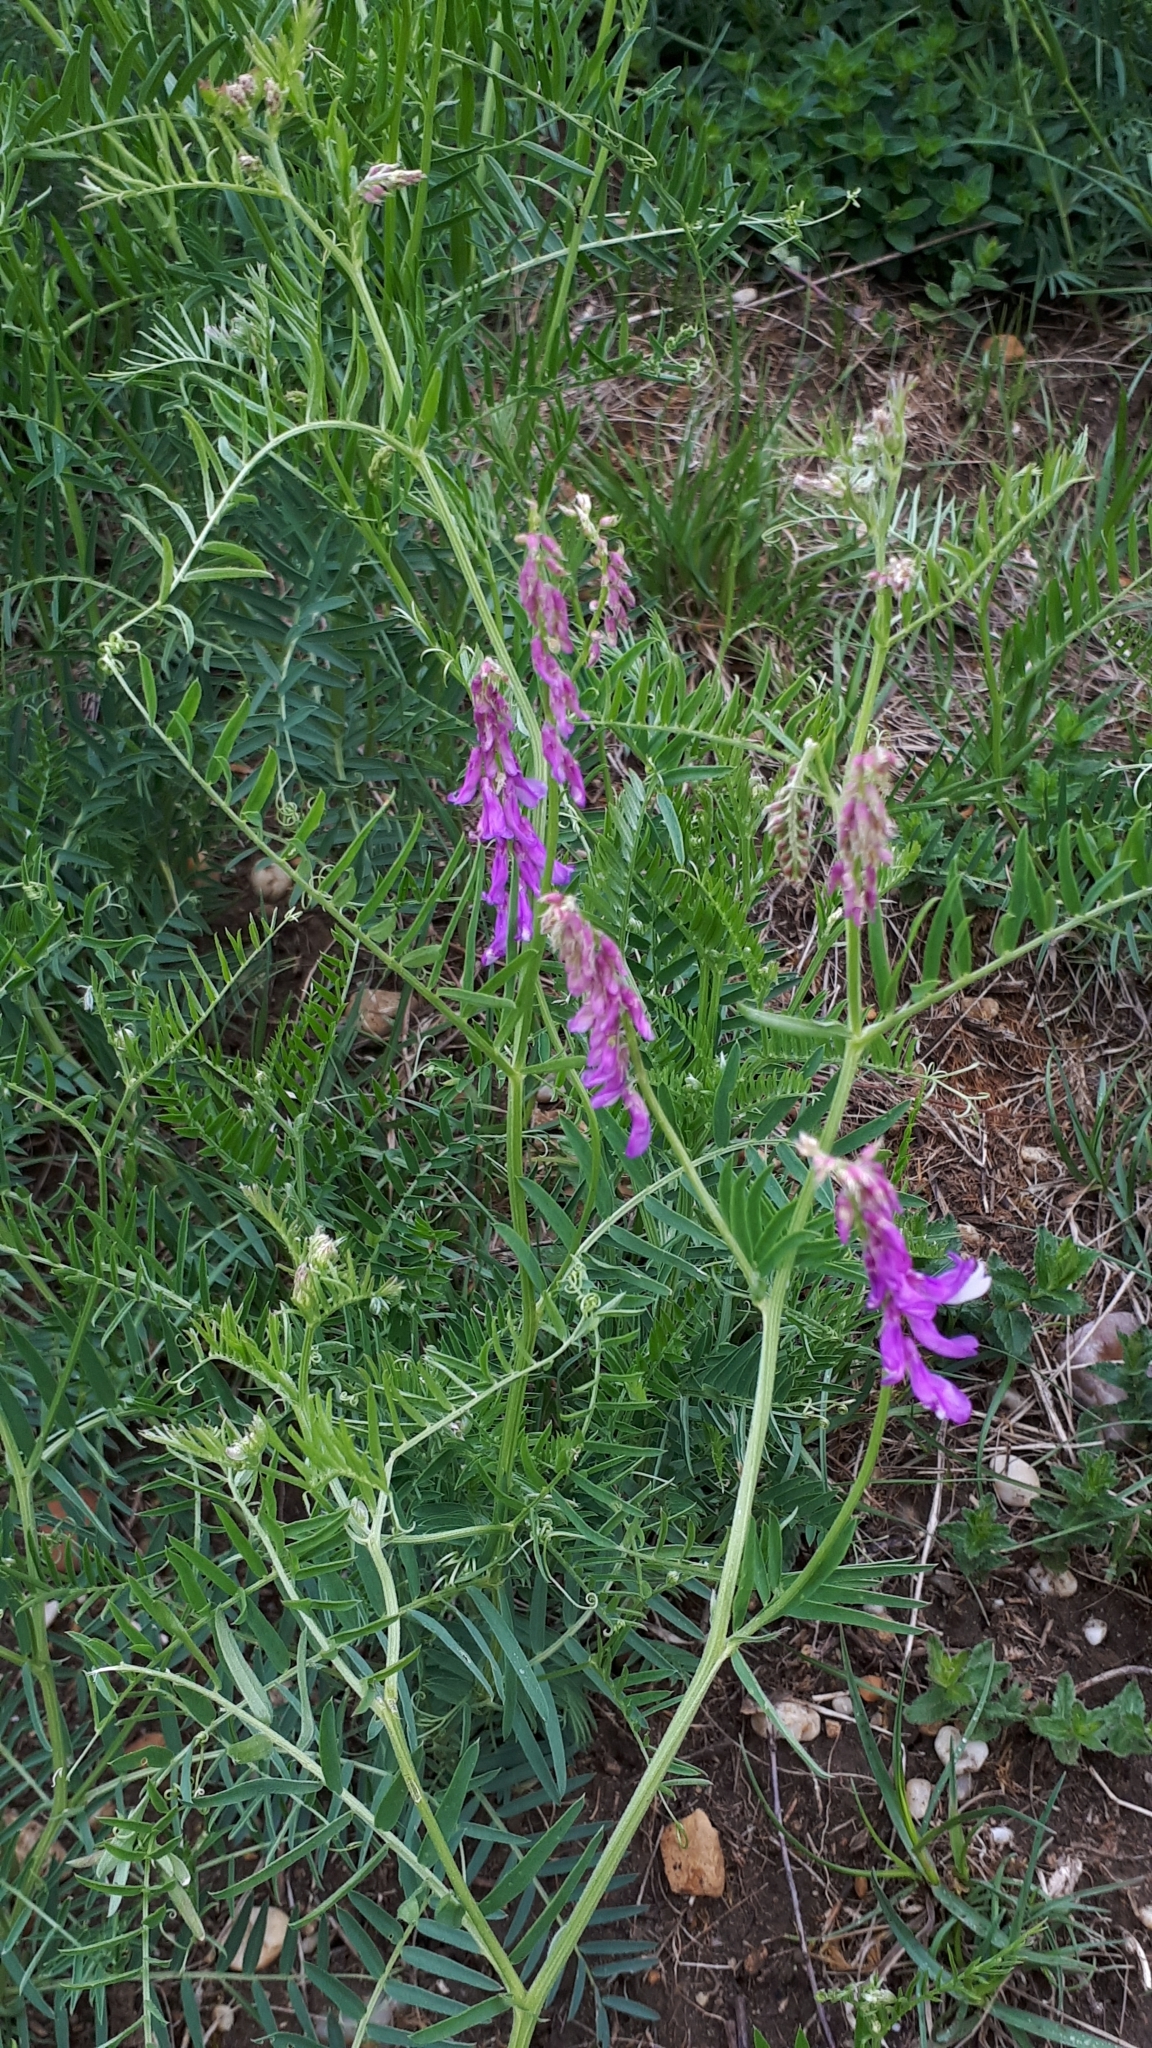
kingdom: Plantae
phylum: Tracheophyta
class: Magnoliopsida
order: Fabales
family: Fabaceae
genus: Vicia
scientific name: Vicia villosa
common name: Fodder vetch
